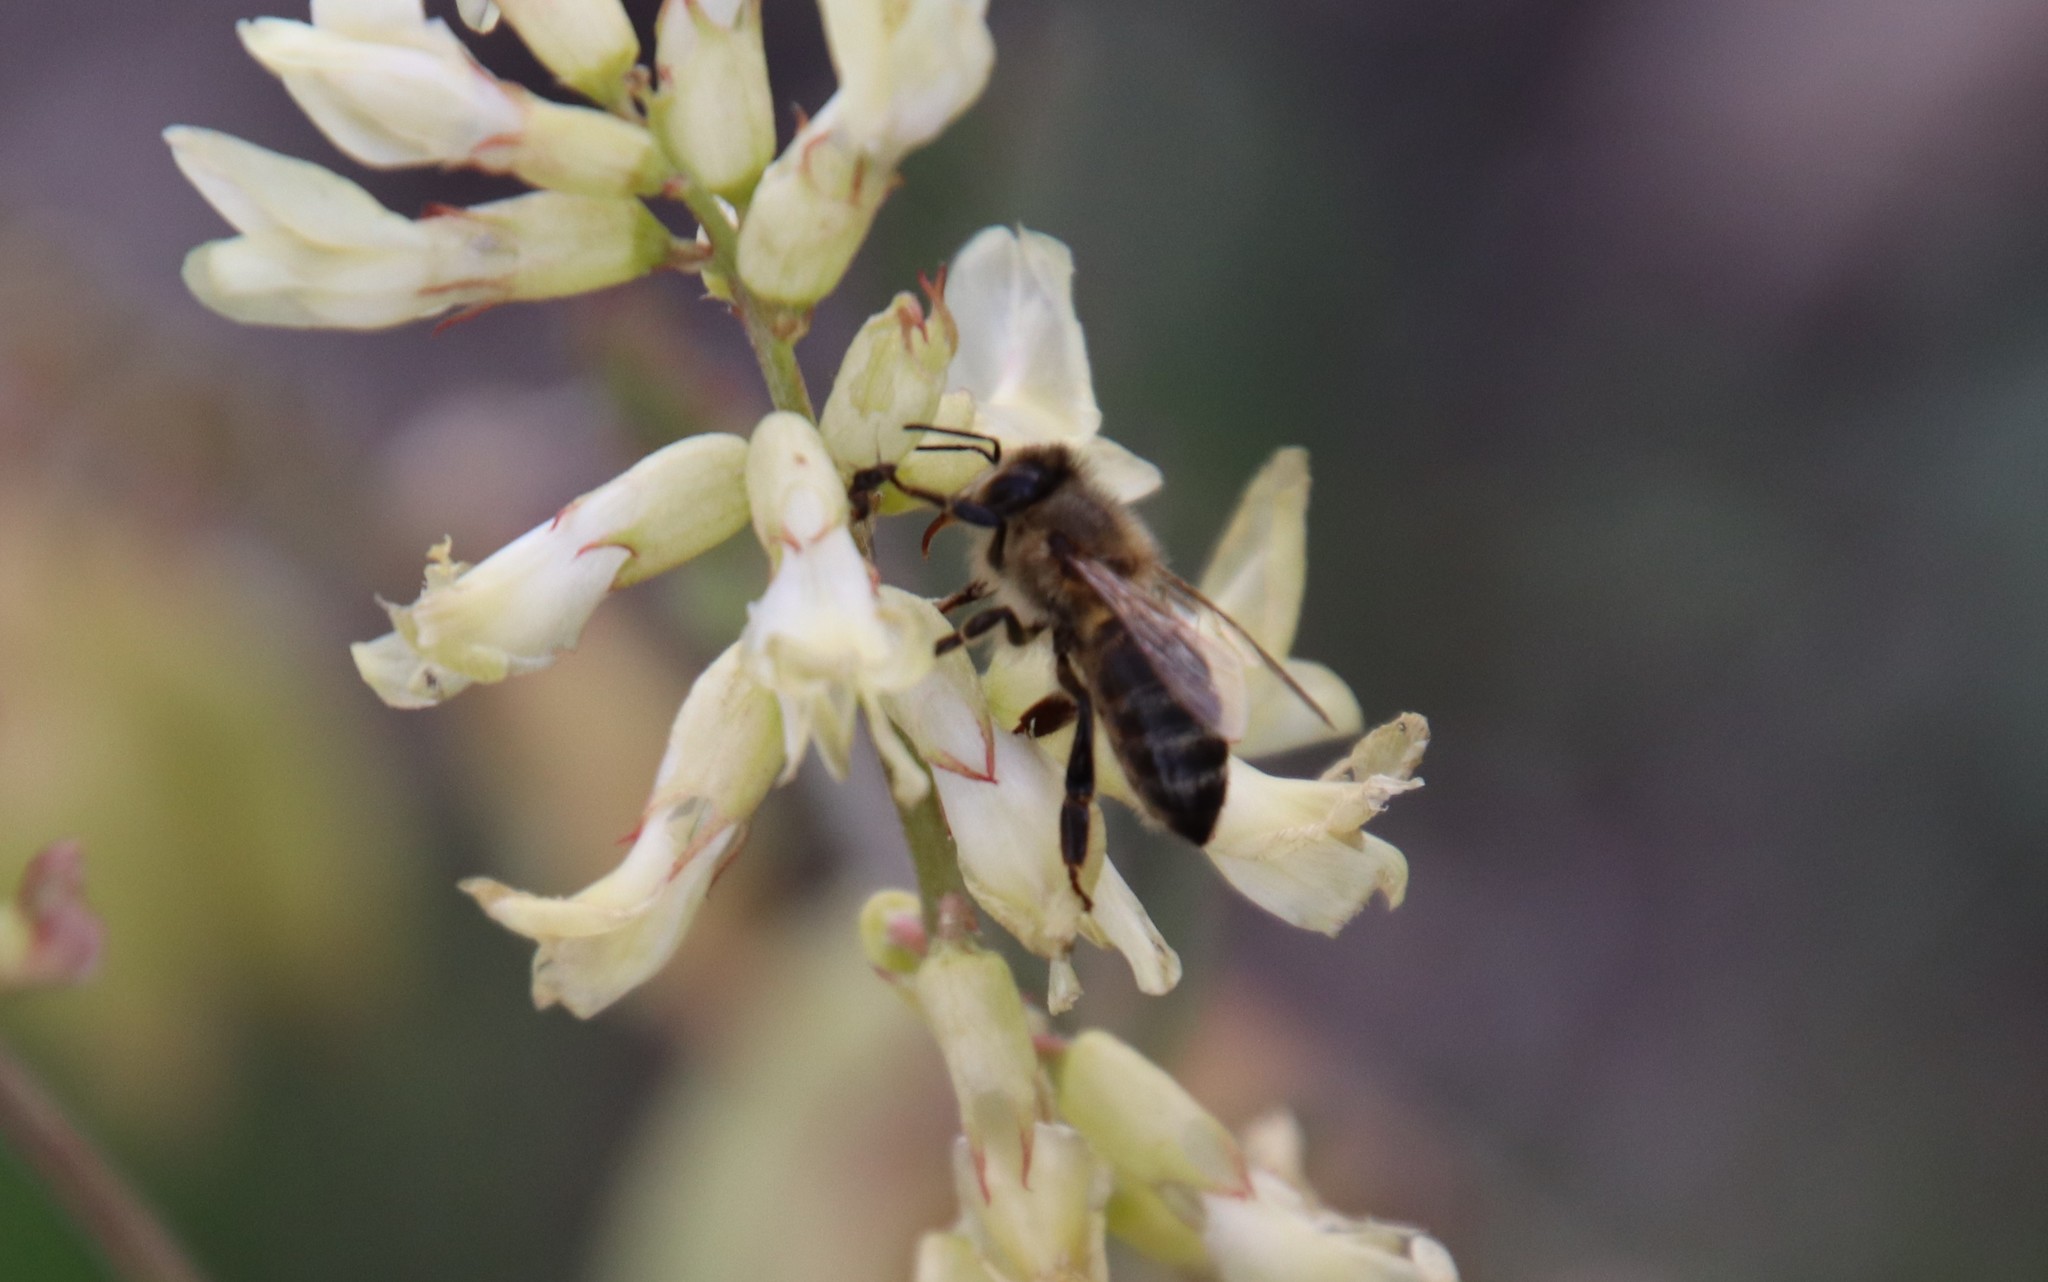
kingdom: Animalia
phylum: Arthropoda
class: Insecta
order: Hymenoptera
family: Apidae
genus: Apis
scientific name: Apis mellifera
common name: Honey bee
